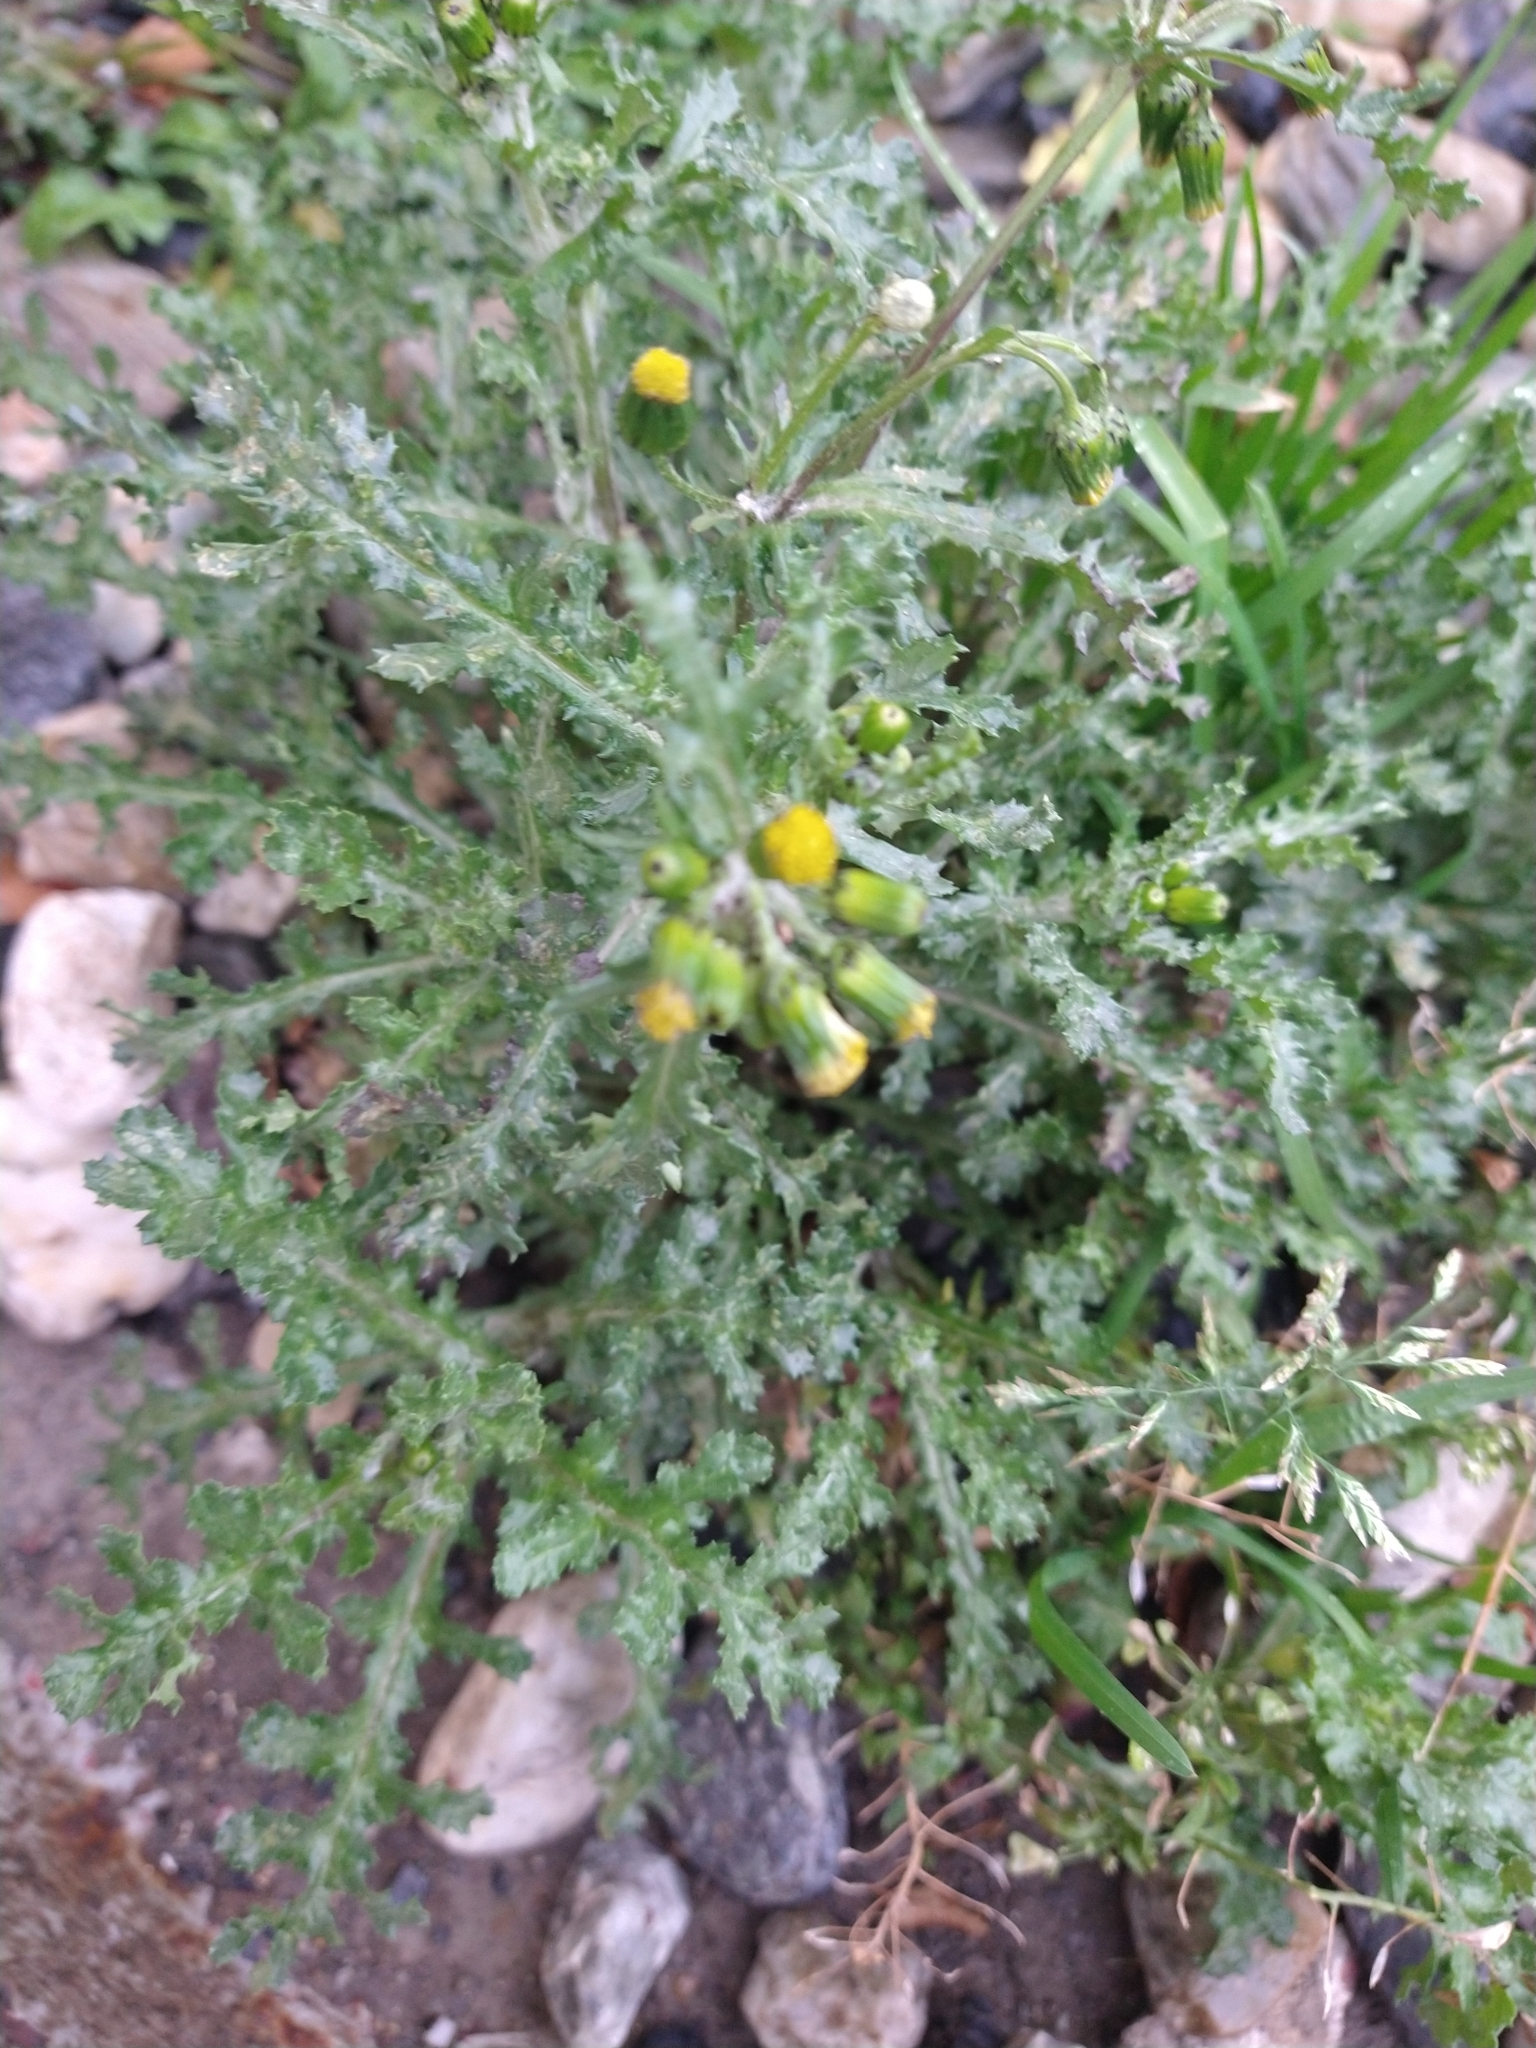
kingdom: Plantae
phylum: Tracheophyta
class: Magnoliopsida
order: Asterales
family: Asteraceae
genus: Senecio
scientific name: Senecio vulgaris
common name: Old-man-in-the-spring
